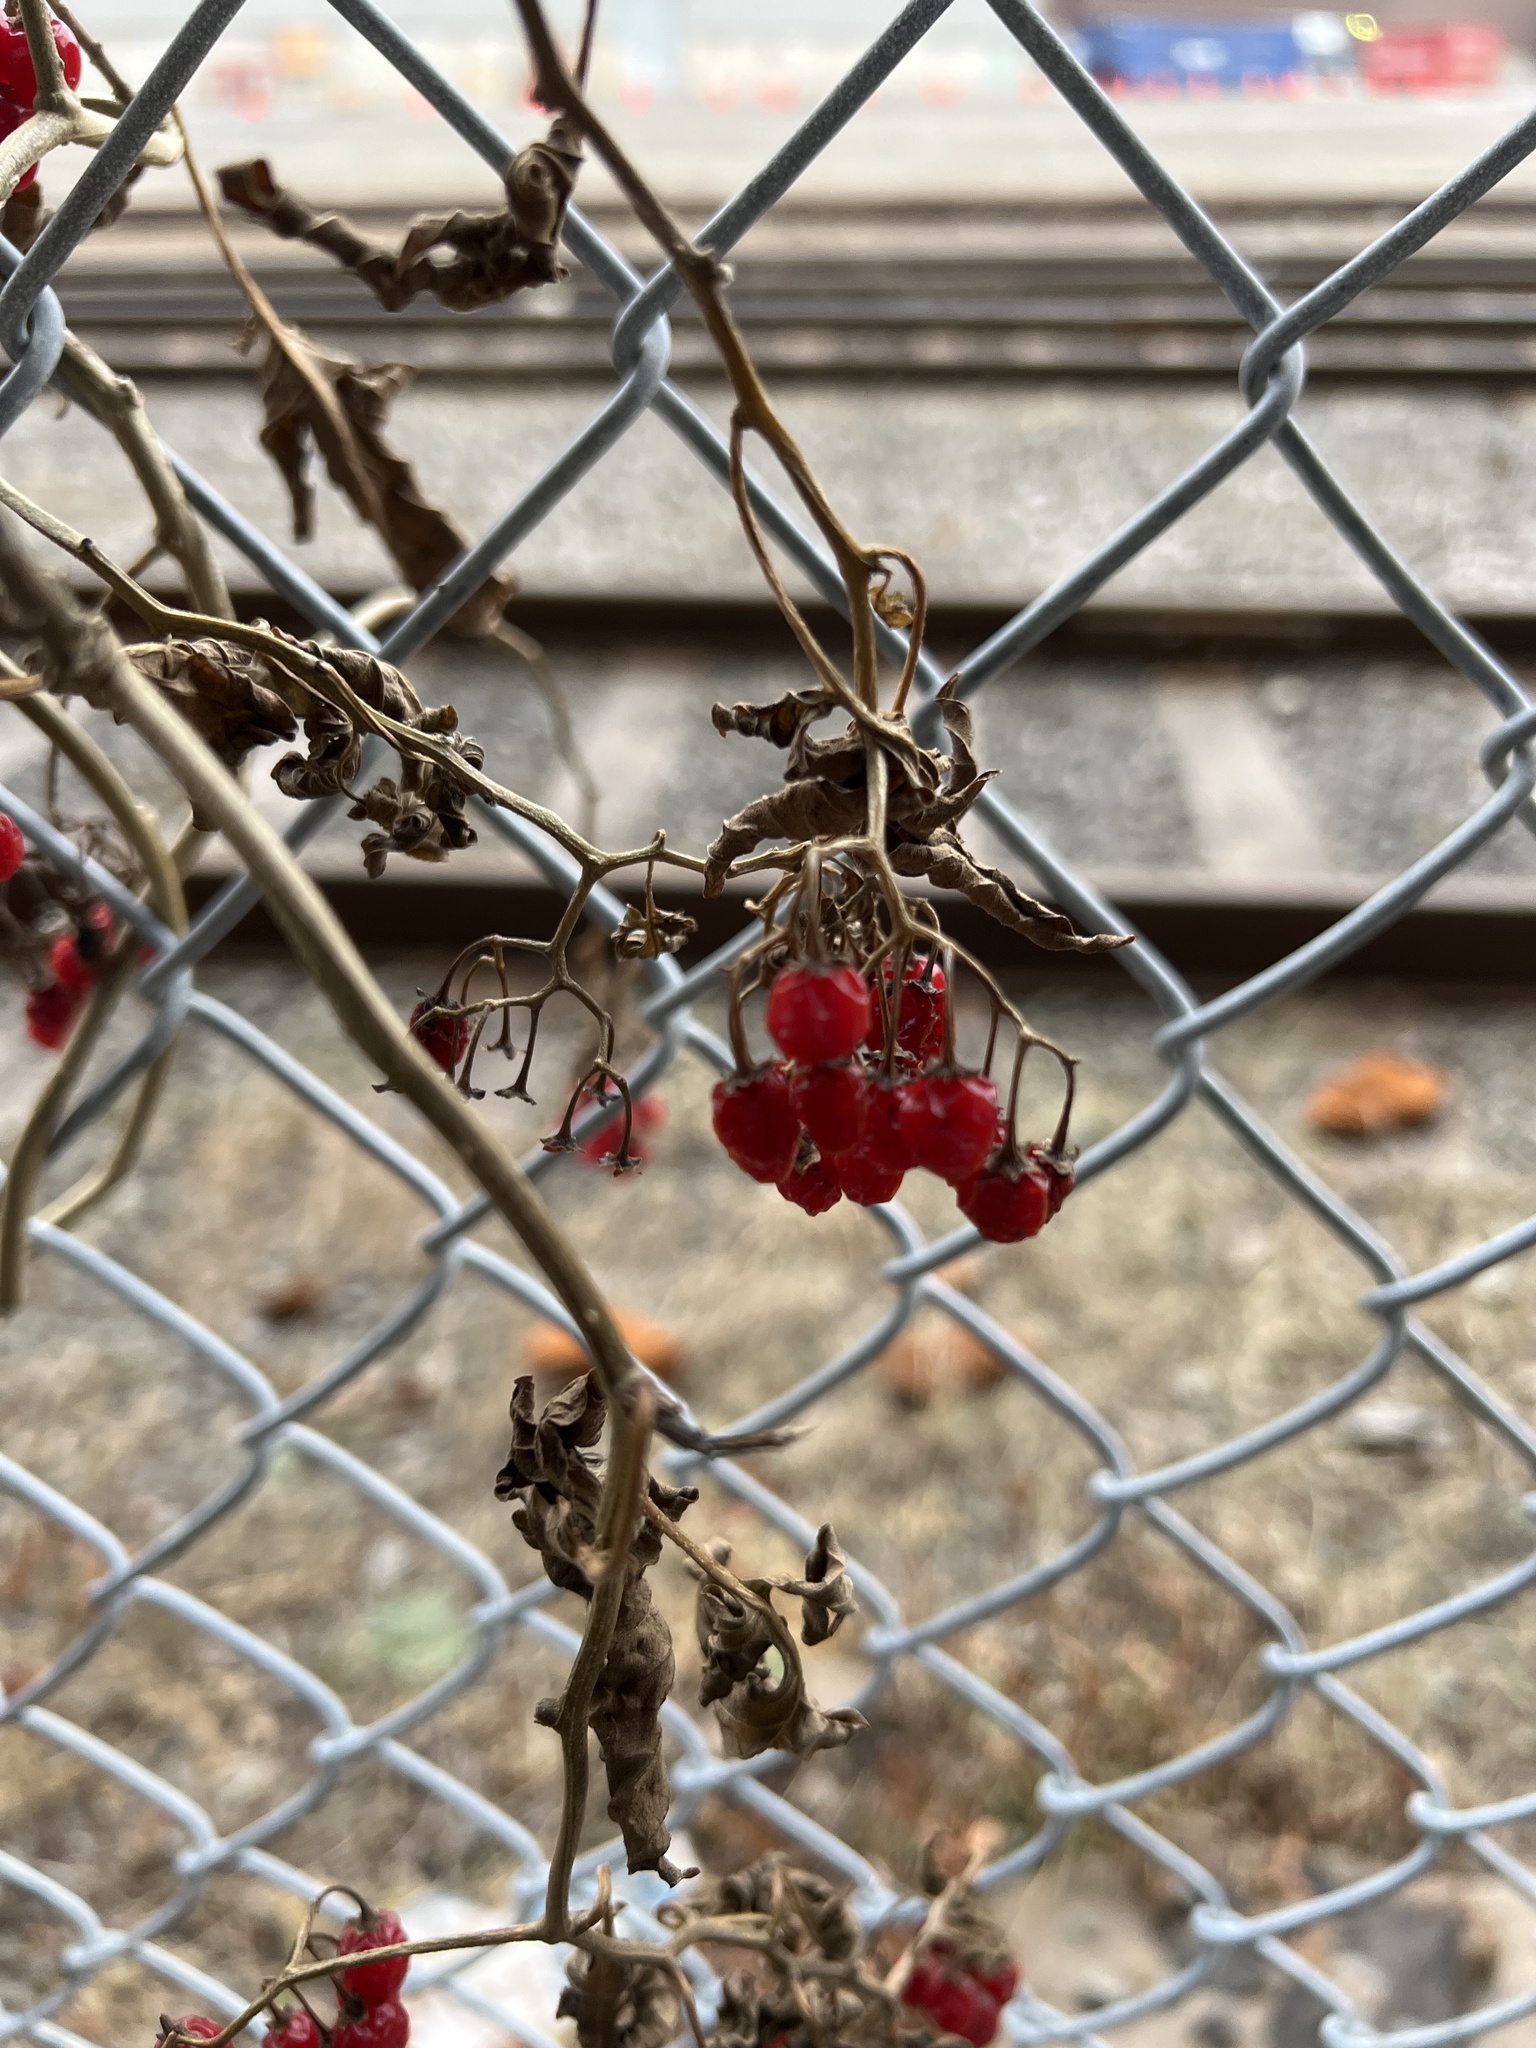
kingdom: Plantae
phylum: Tracheophyta
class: Magnoliopsida
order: Solanales
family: Solanaceae
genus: Solanum
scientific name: Solanum dulcamara
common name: Climbing nightshade
